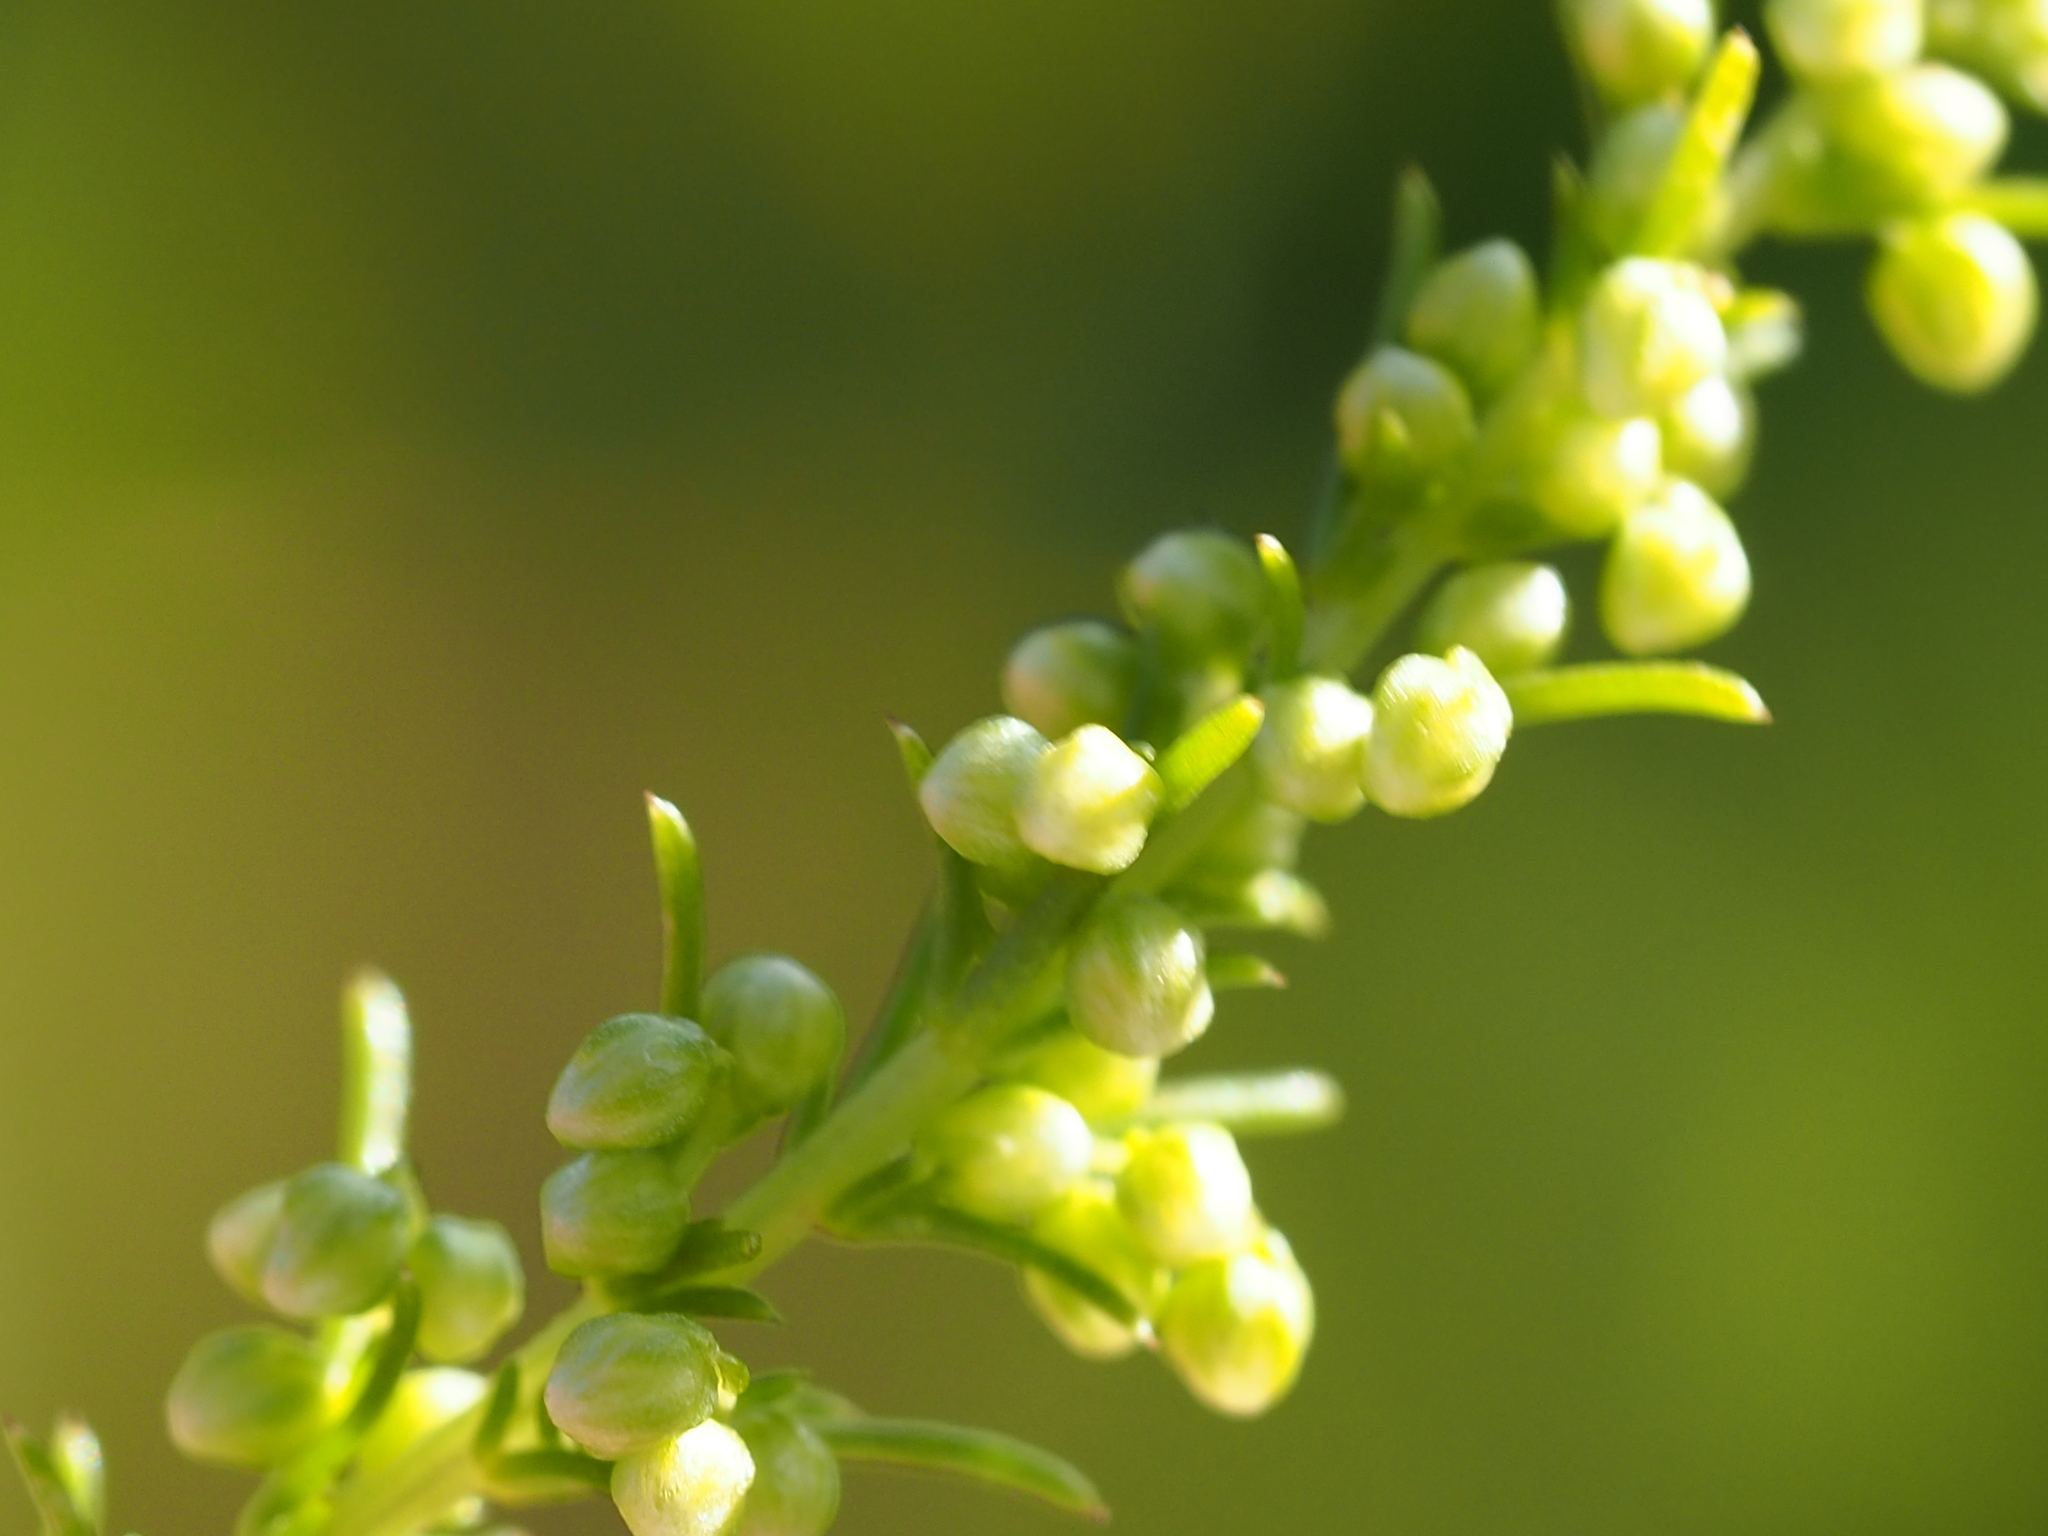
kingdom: Plantae
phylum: Tracheophyta
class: Magnoliopsida
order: Asterales
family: Asteraceae
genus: Artemisia
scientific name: Artemisia capillaris
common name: Yin-chen wormwood
